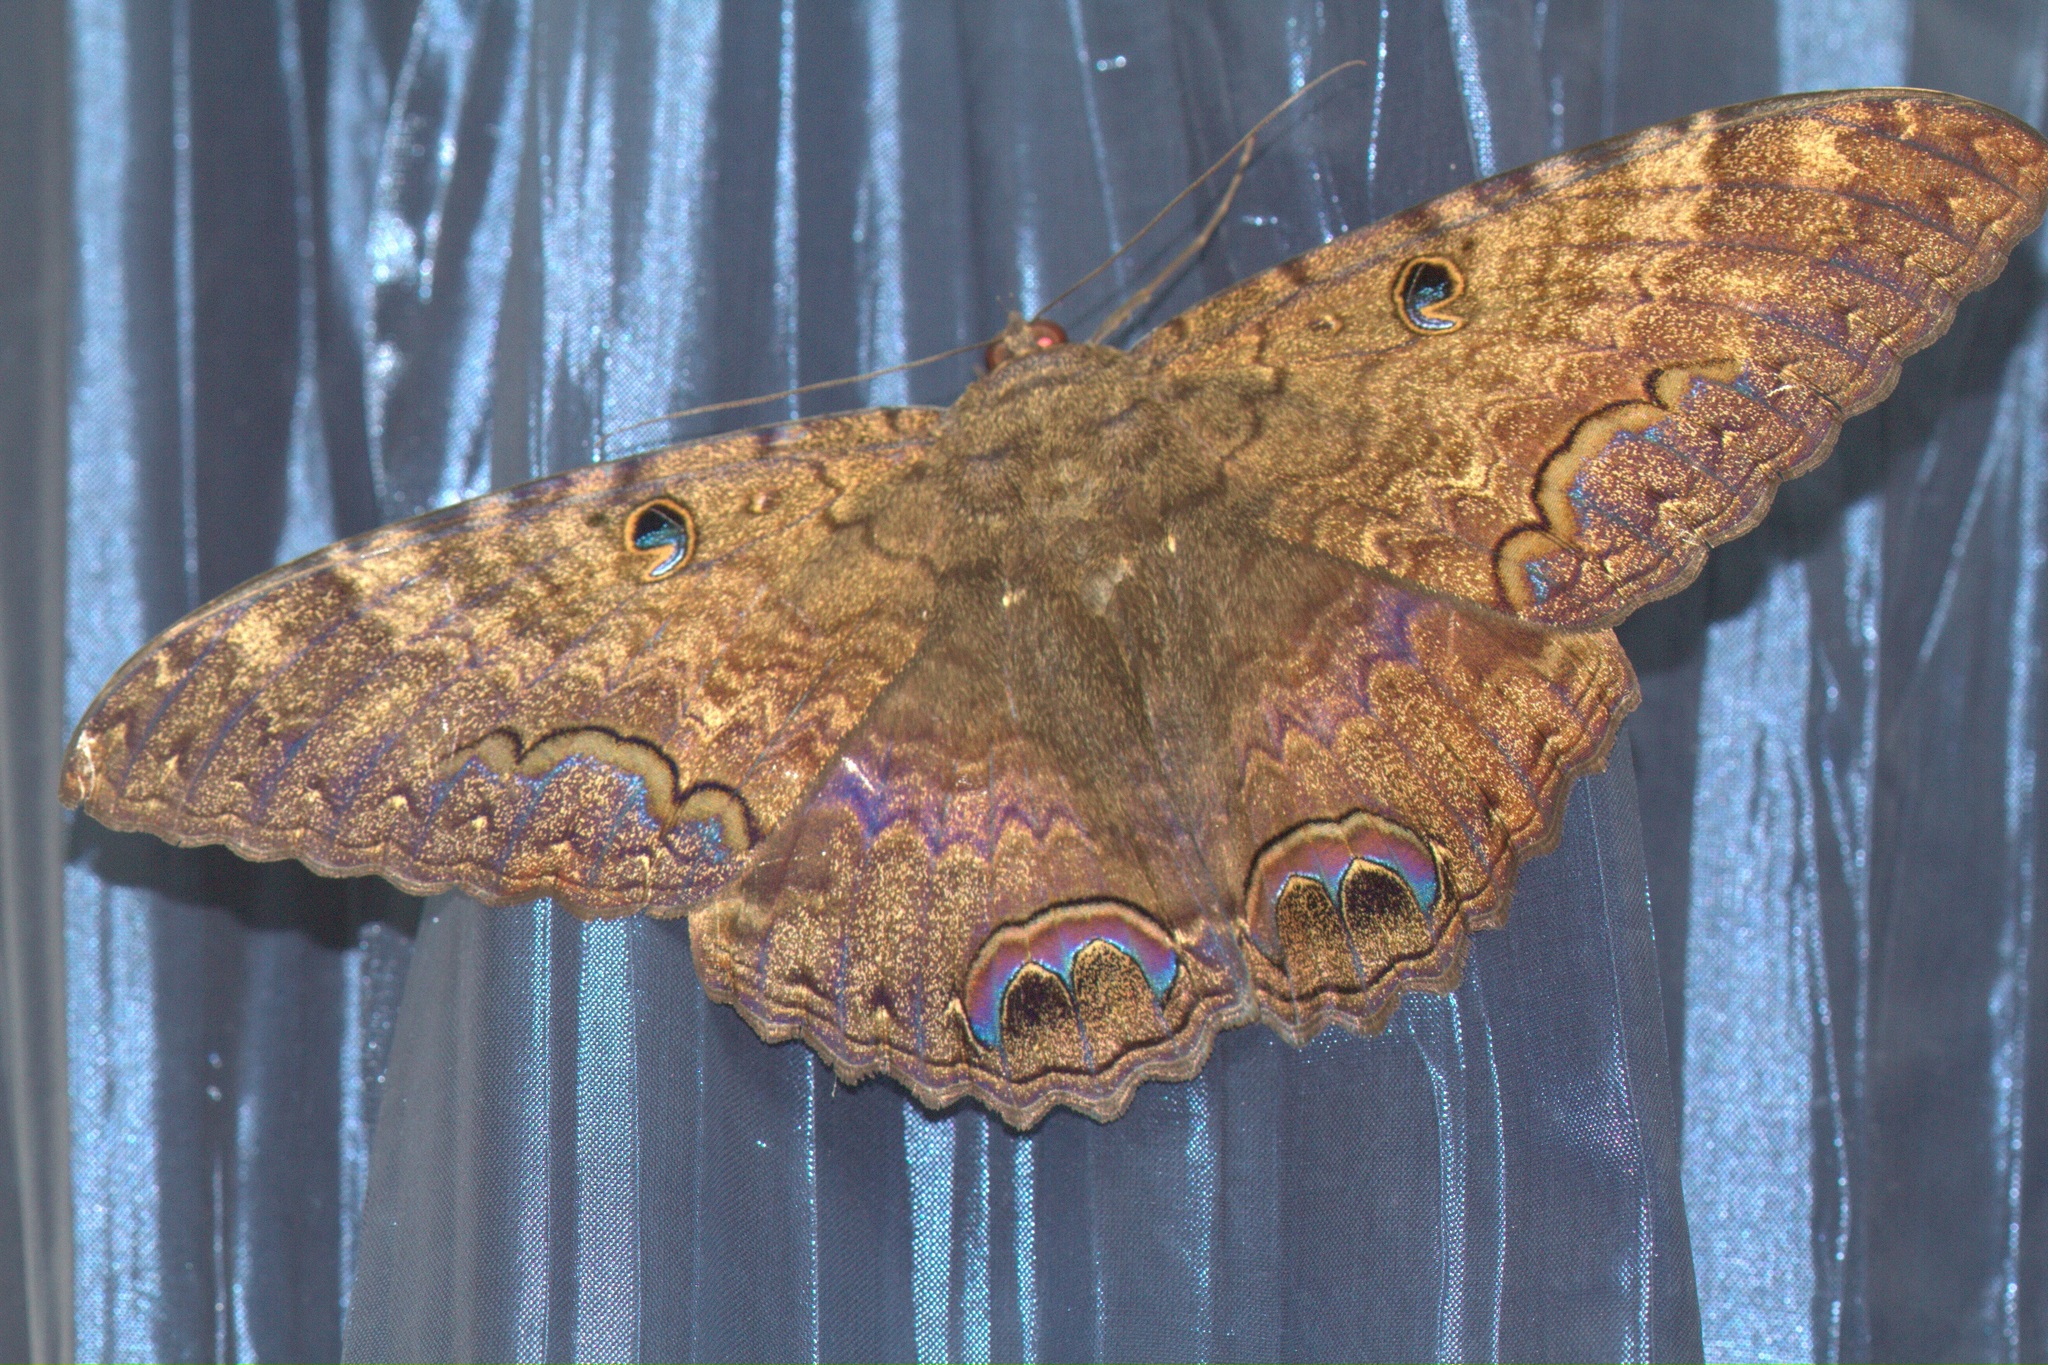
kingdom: Animalia
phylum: Arthropoda
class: Insecta
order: Lepidoptera
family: Erebidae
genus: Ascalapha
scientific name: Ascalapha odorata
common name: Black witch
